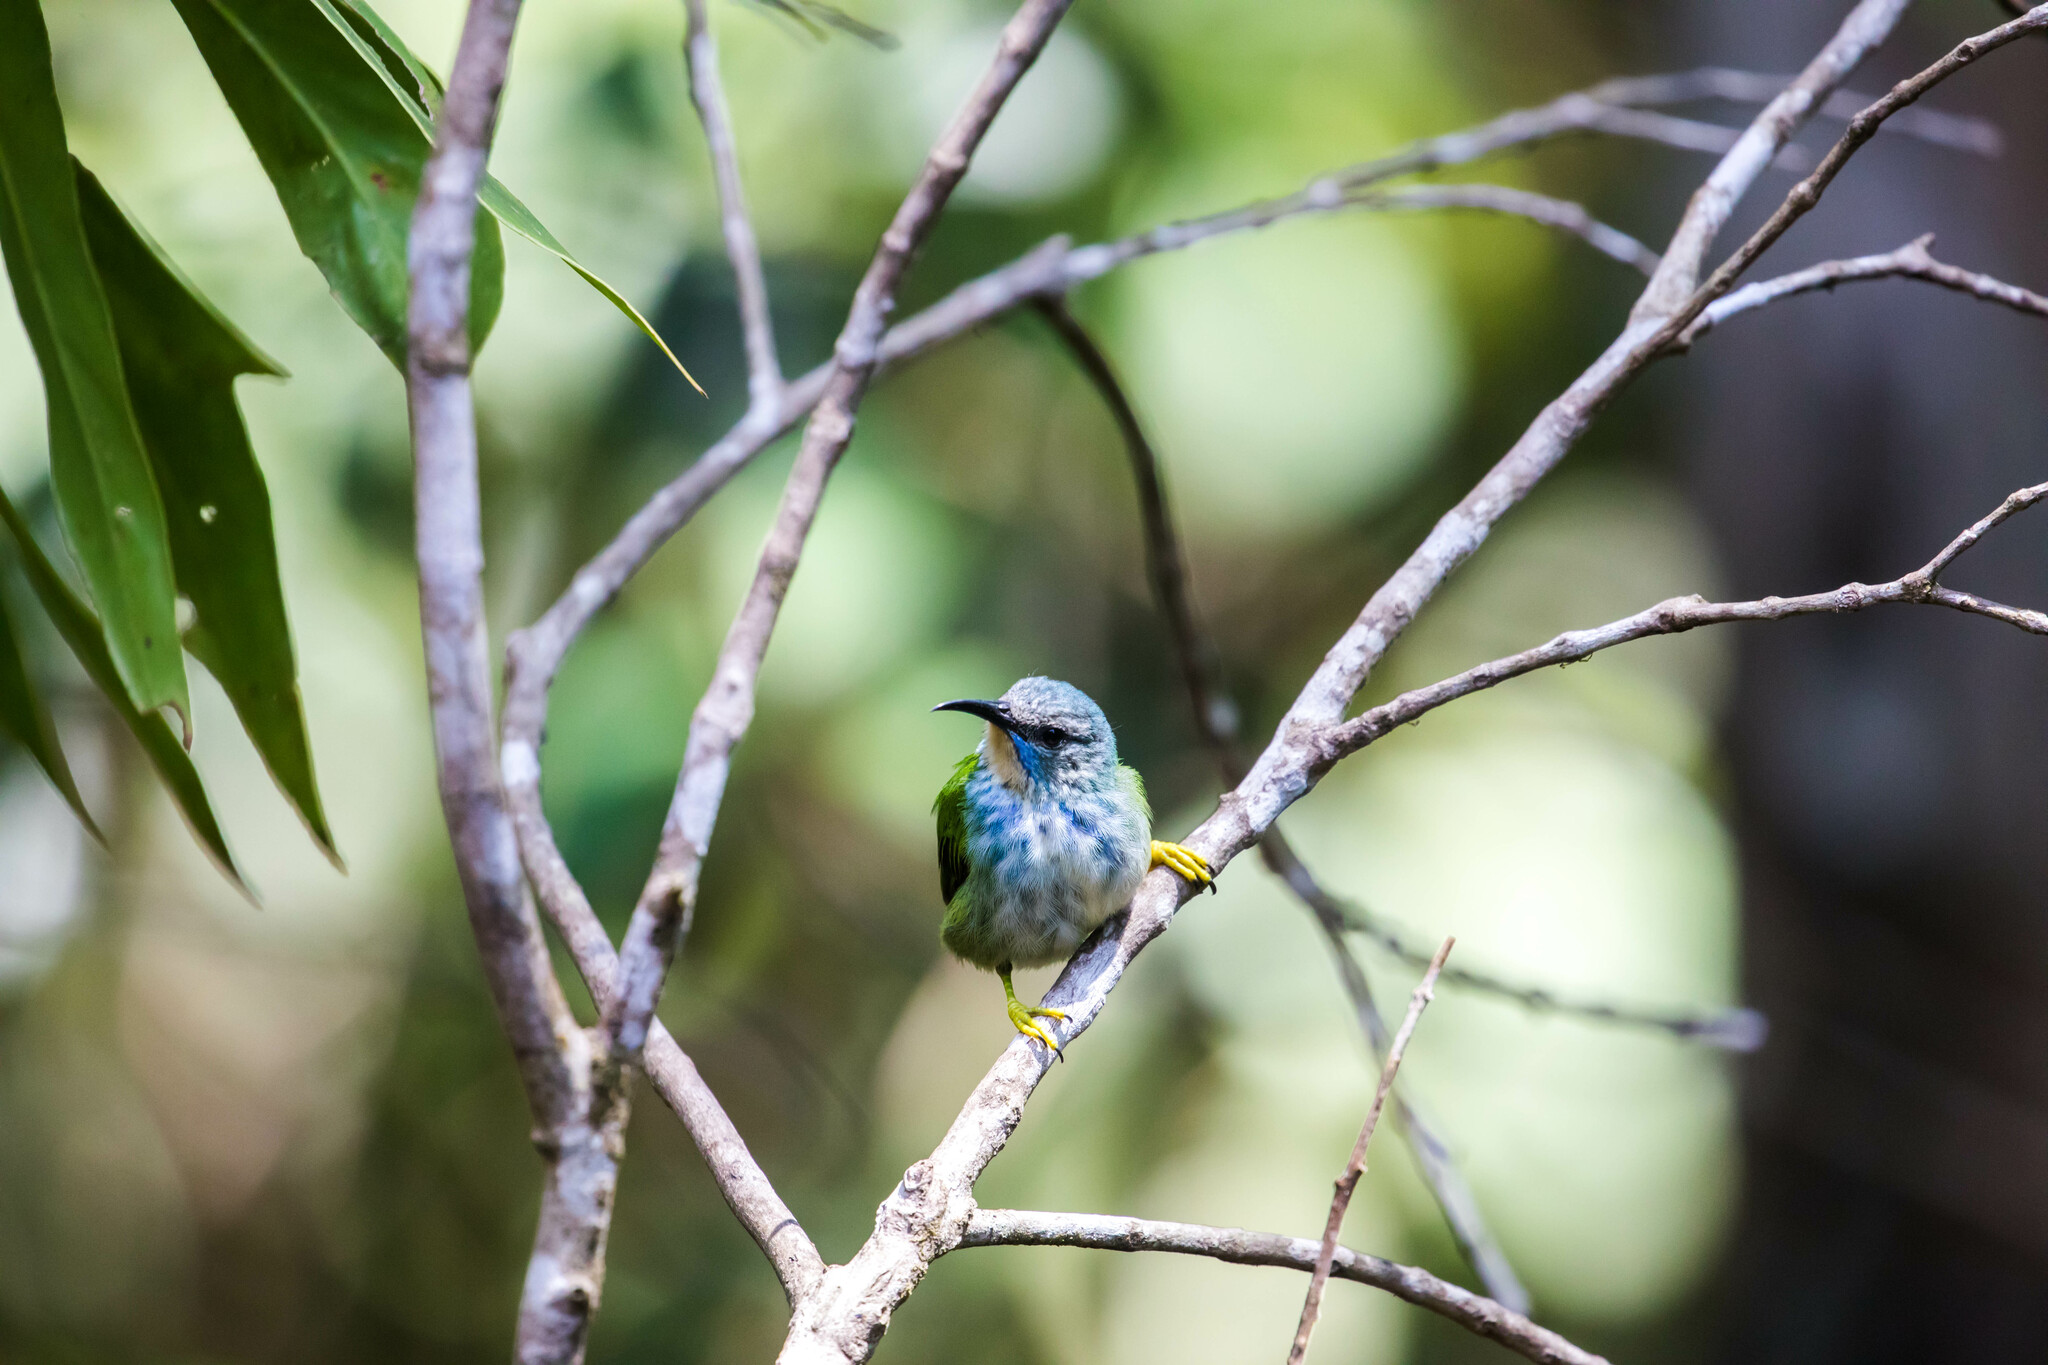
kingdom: Animalia
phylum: Chordata
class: Aves
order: Passeriformes
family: Thraupidae
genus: Cyanerpes
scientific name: Cyanerpes lucidus
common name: Shining honeycreeper
